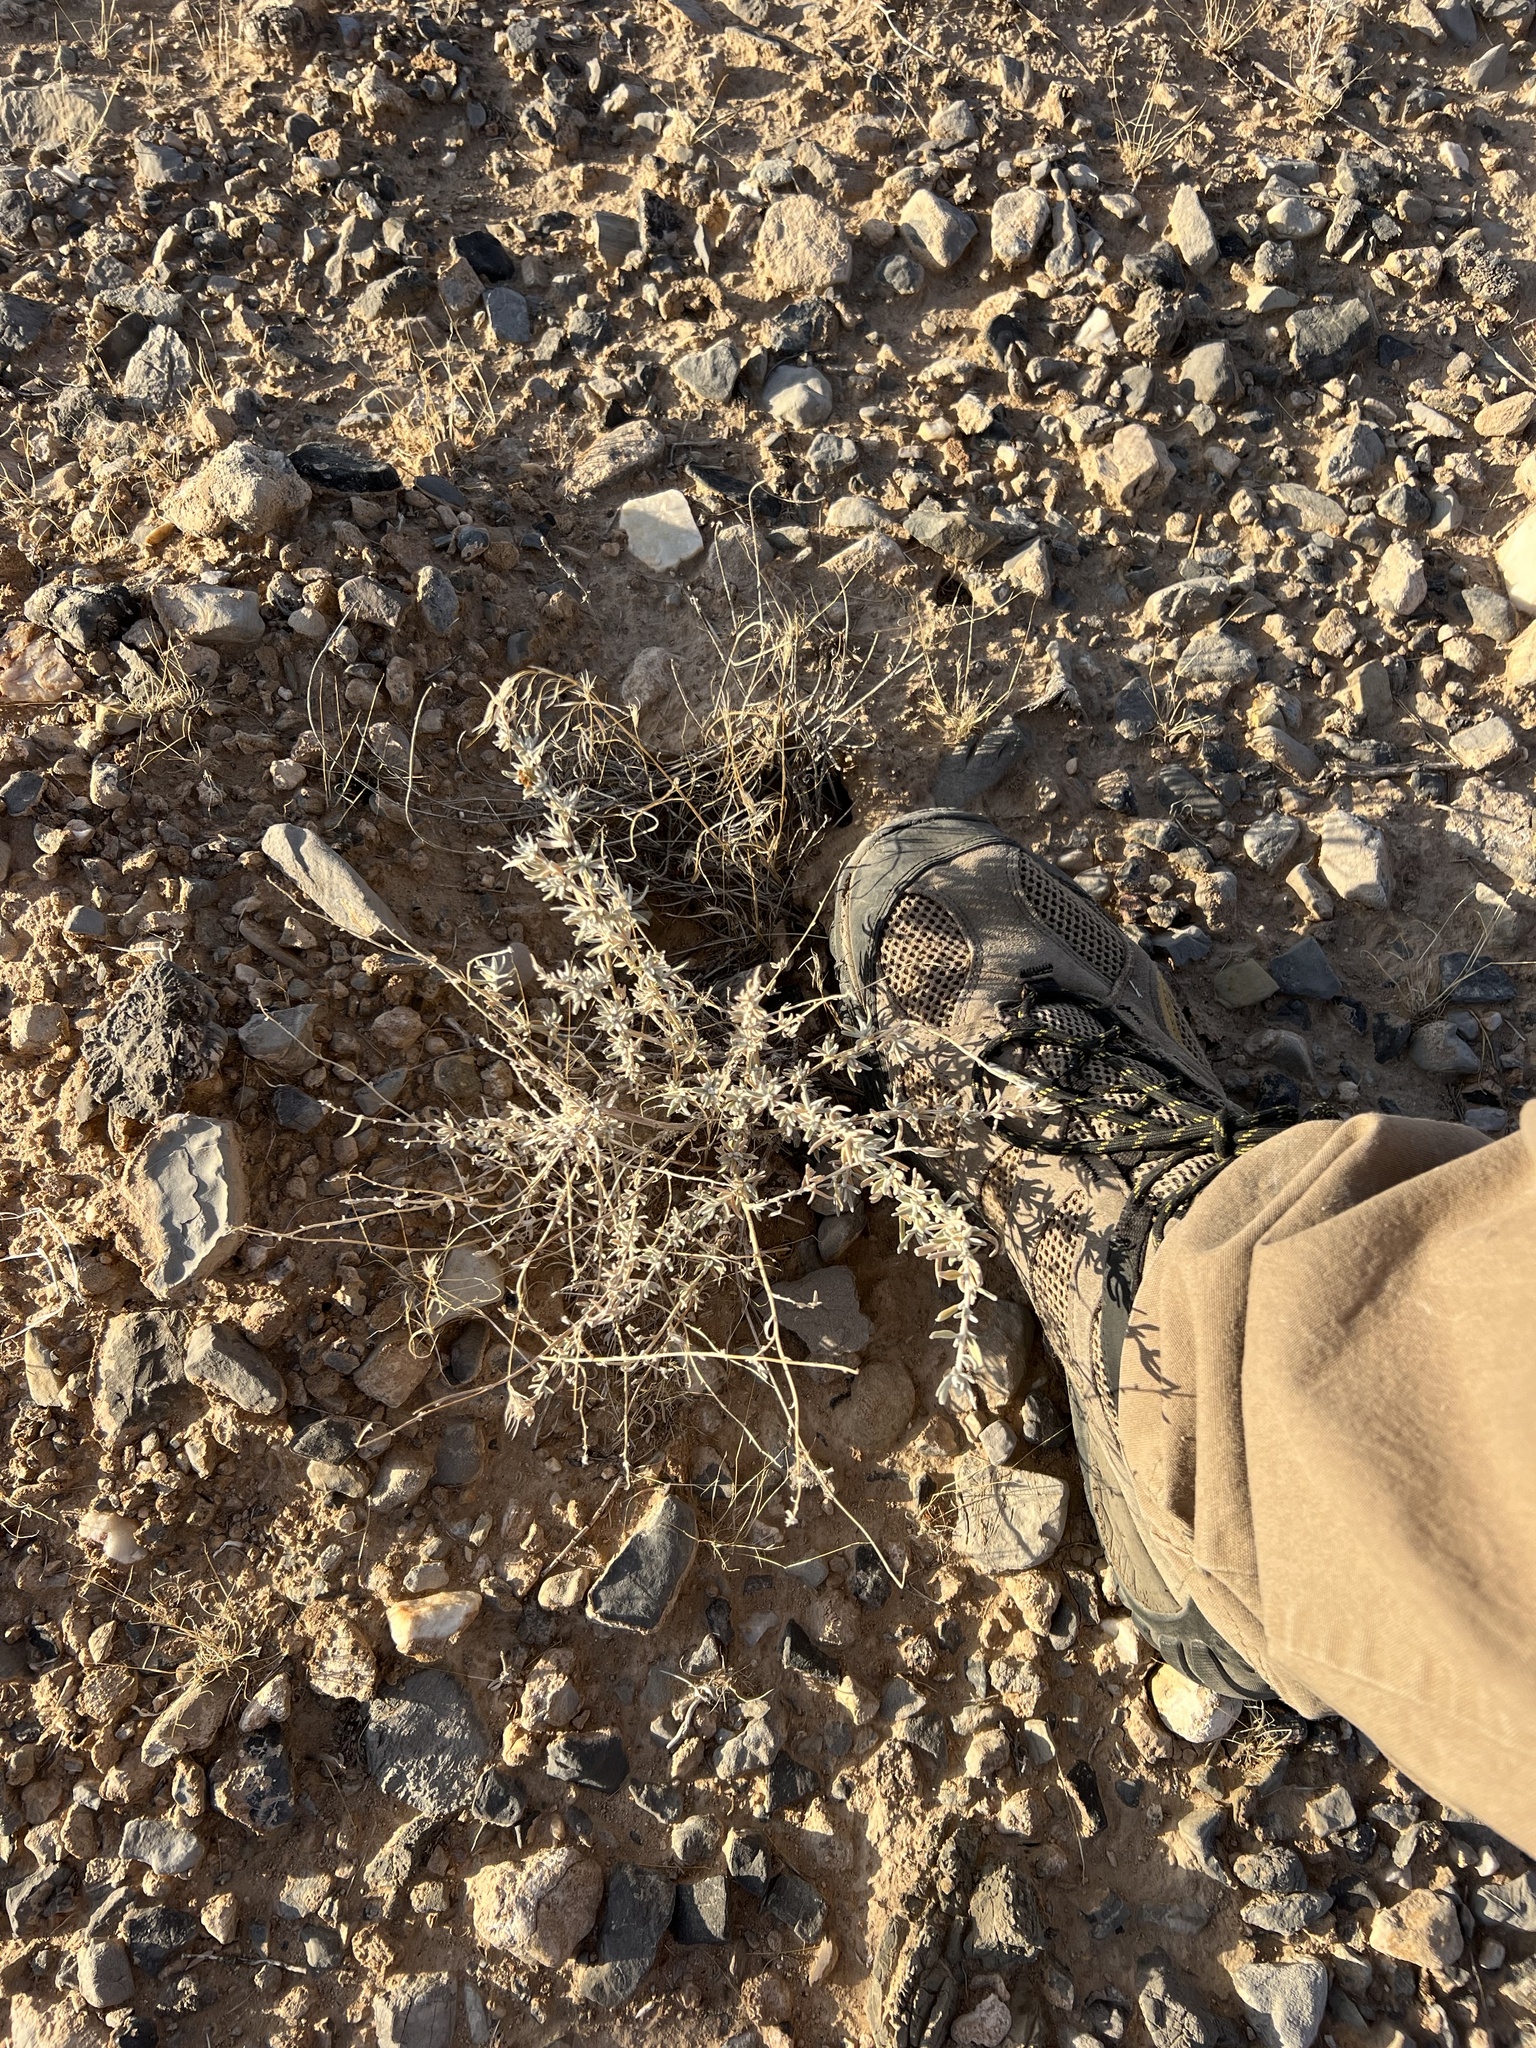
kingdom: Plantae
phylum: Tracheophyta
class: Magnoliopsida
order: Caryophyllales
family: Amaranthaceae
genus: Krascheninnikovia
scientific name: Krascheninnikovia lanata
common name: Winterfat
